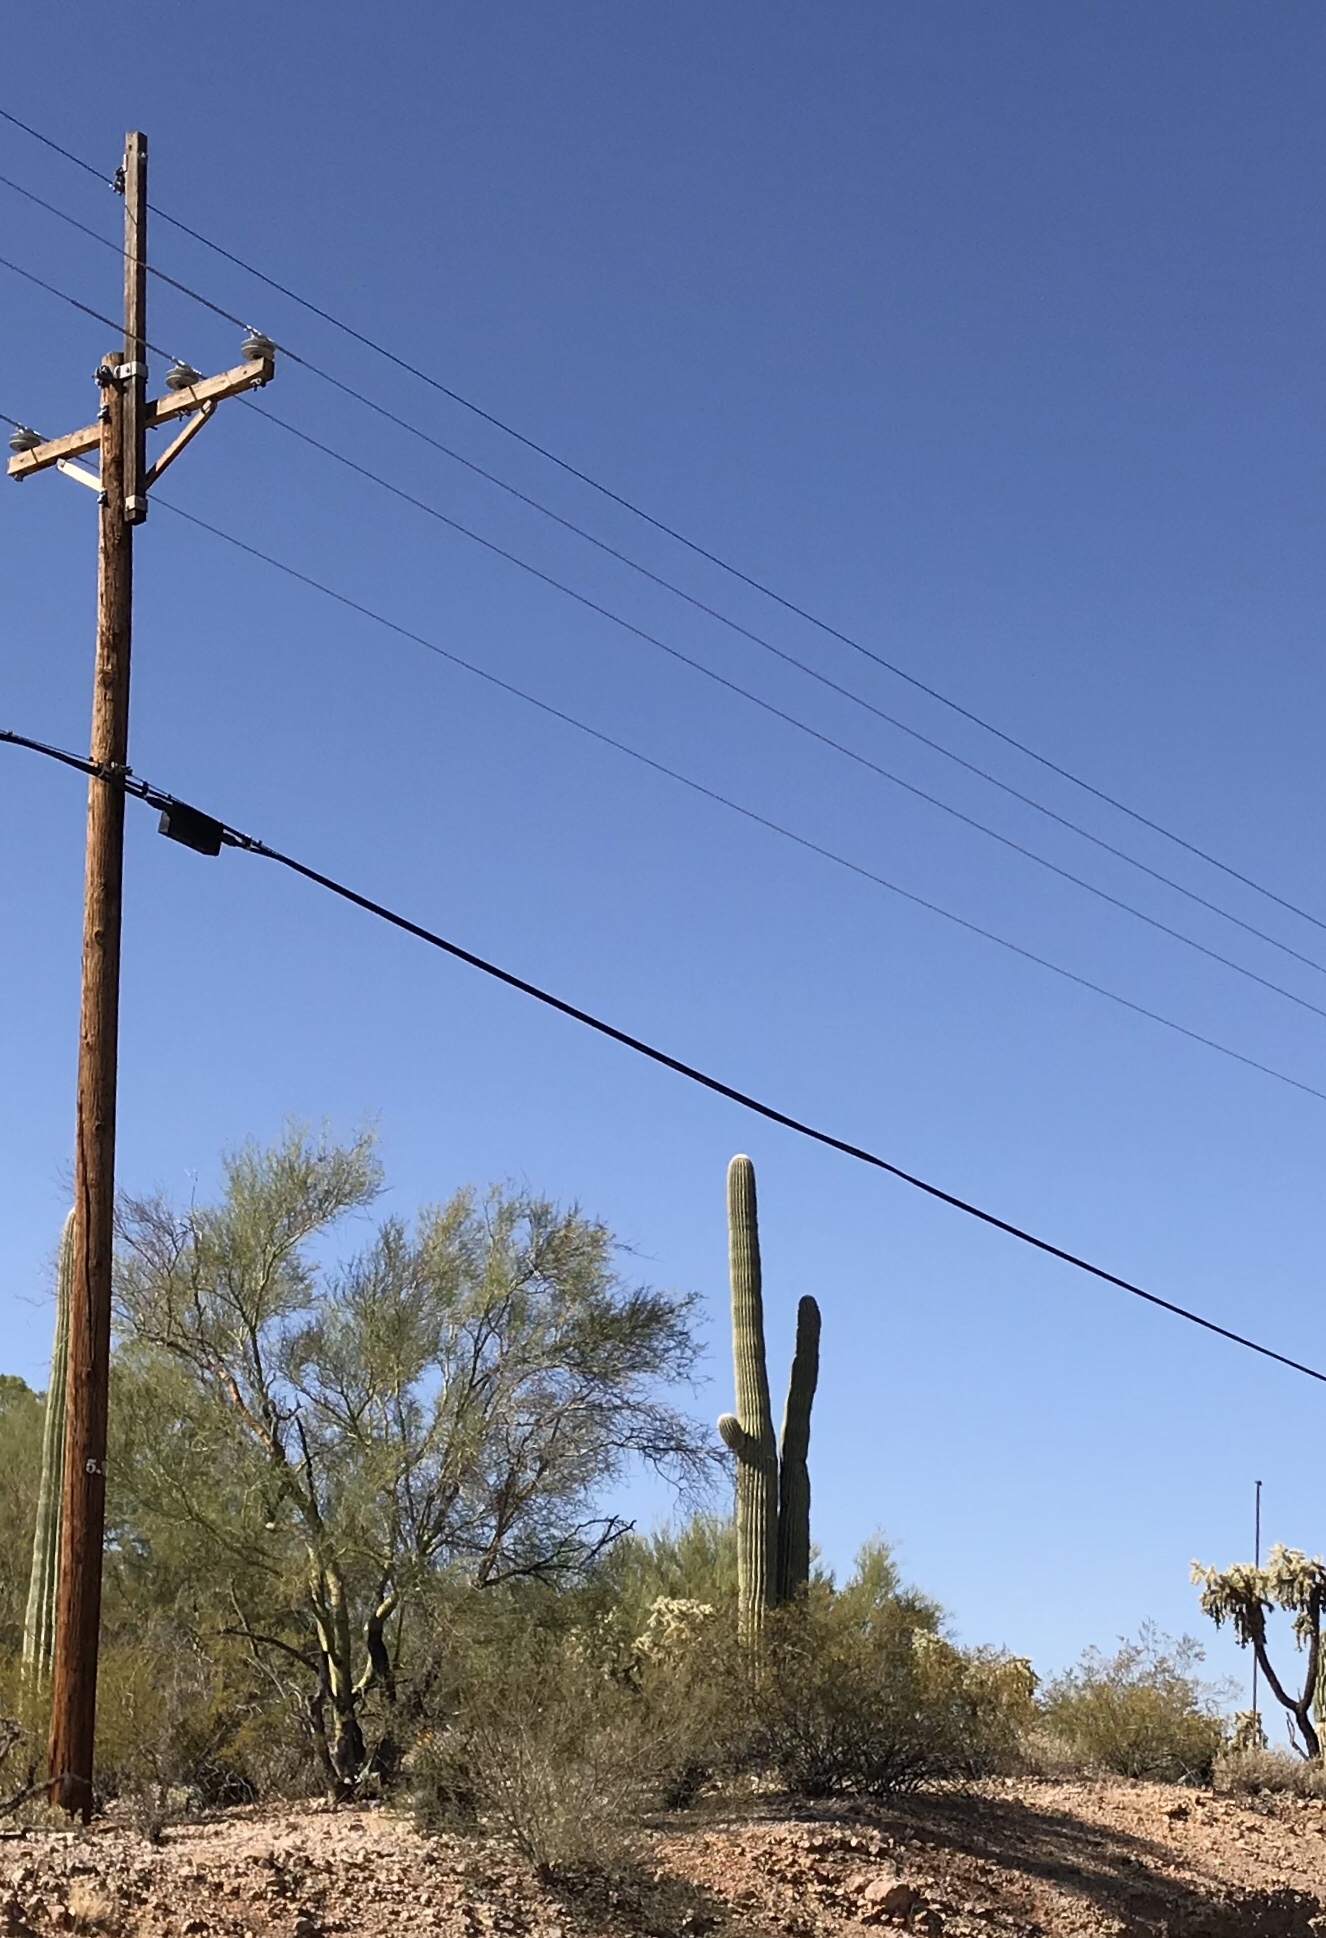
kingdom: Plantae
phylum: Tracheophyta
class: Magnoliopsida
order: Caryophyllales
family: Cactaceae
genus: Carnegiea
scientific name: Carnegiea gigantea
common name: Saguaro
